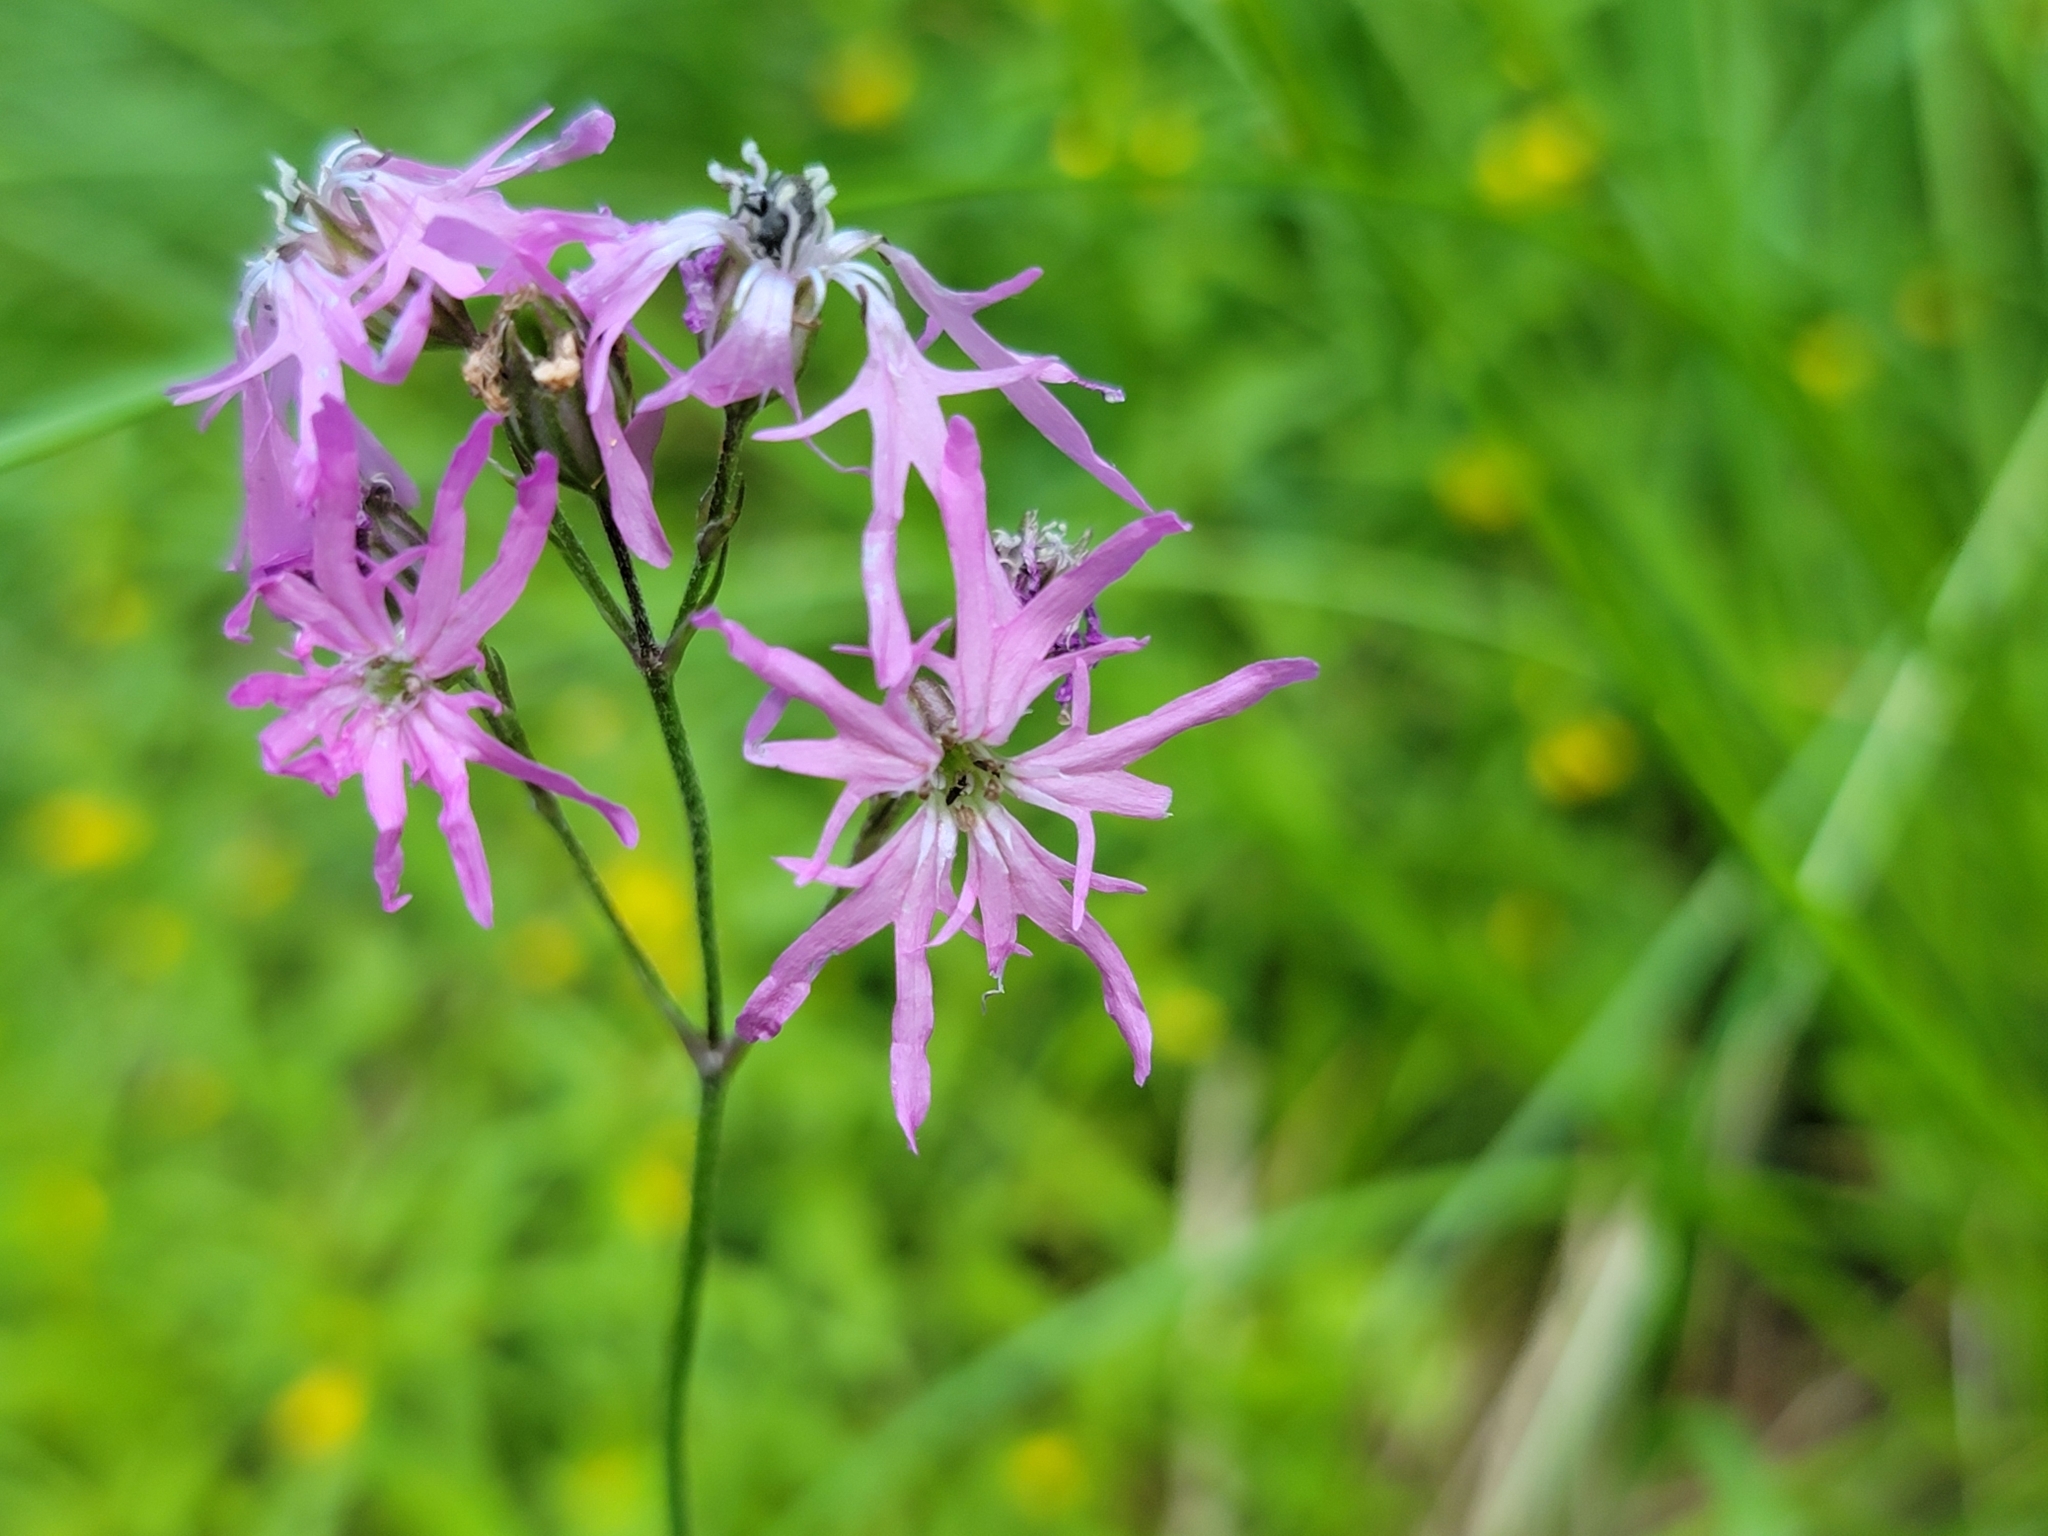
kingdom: Plantae
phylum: Tracheophyta
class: Magnoliopsida
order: Caryophyllales
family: Caryophyllaceae
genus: Silene
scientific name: Silene flos-cuculi
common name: Ragged-robin
